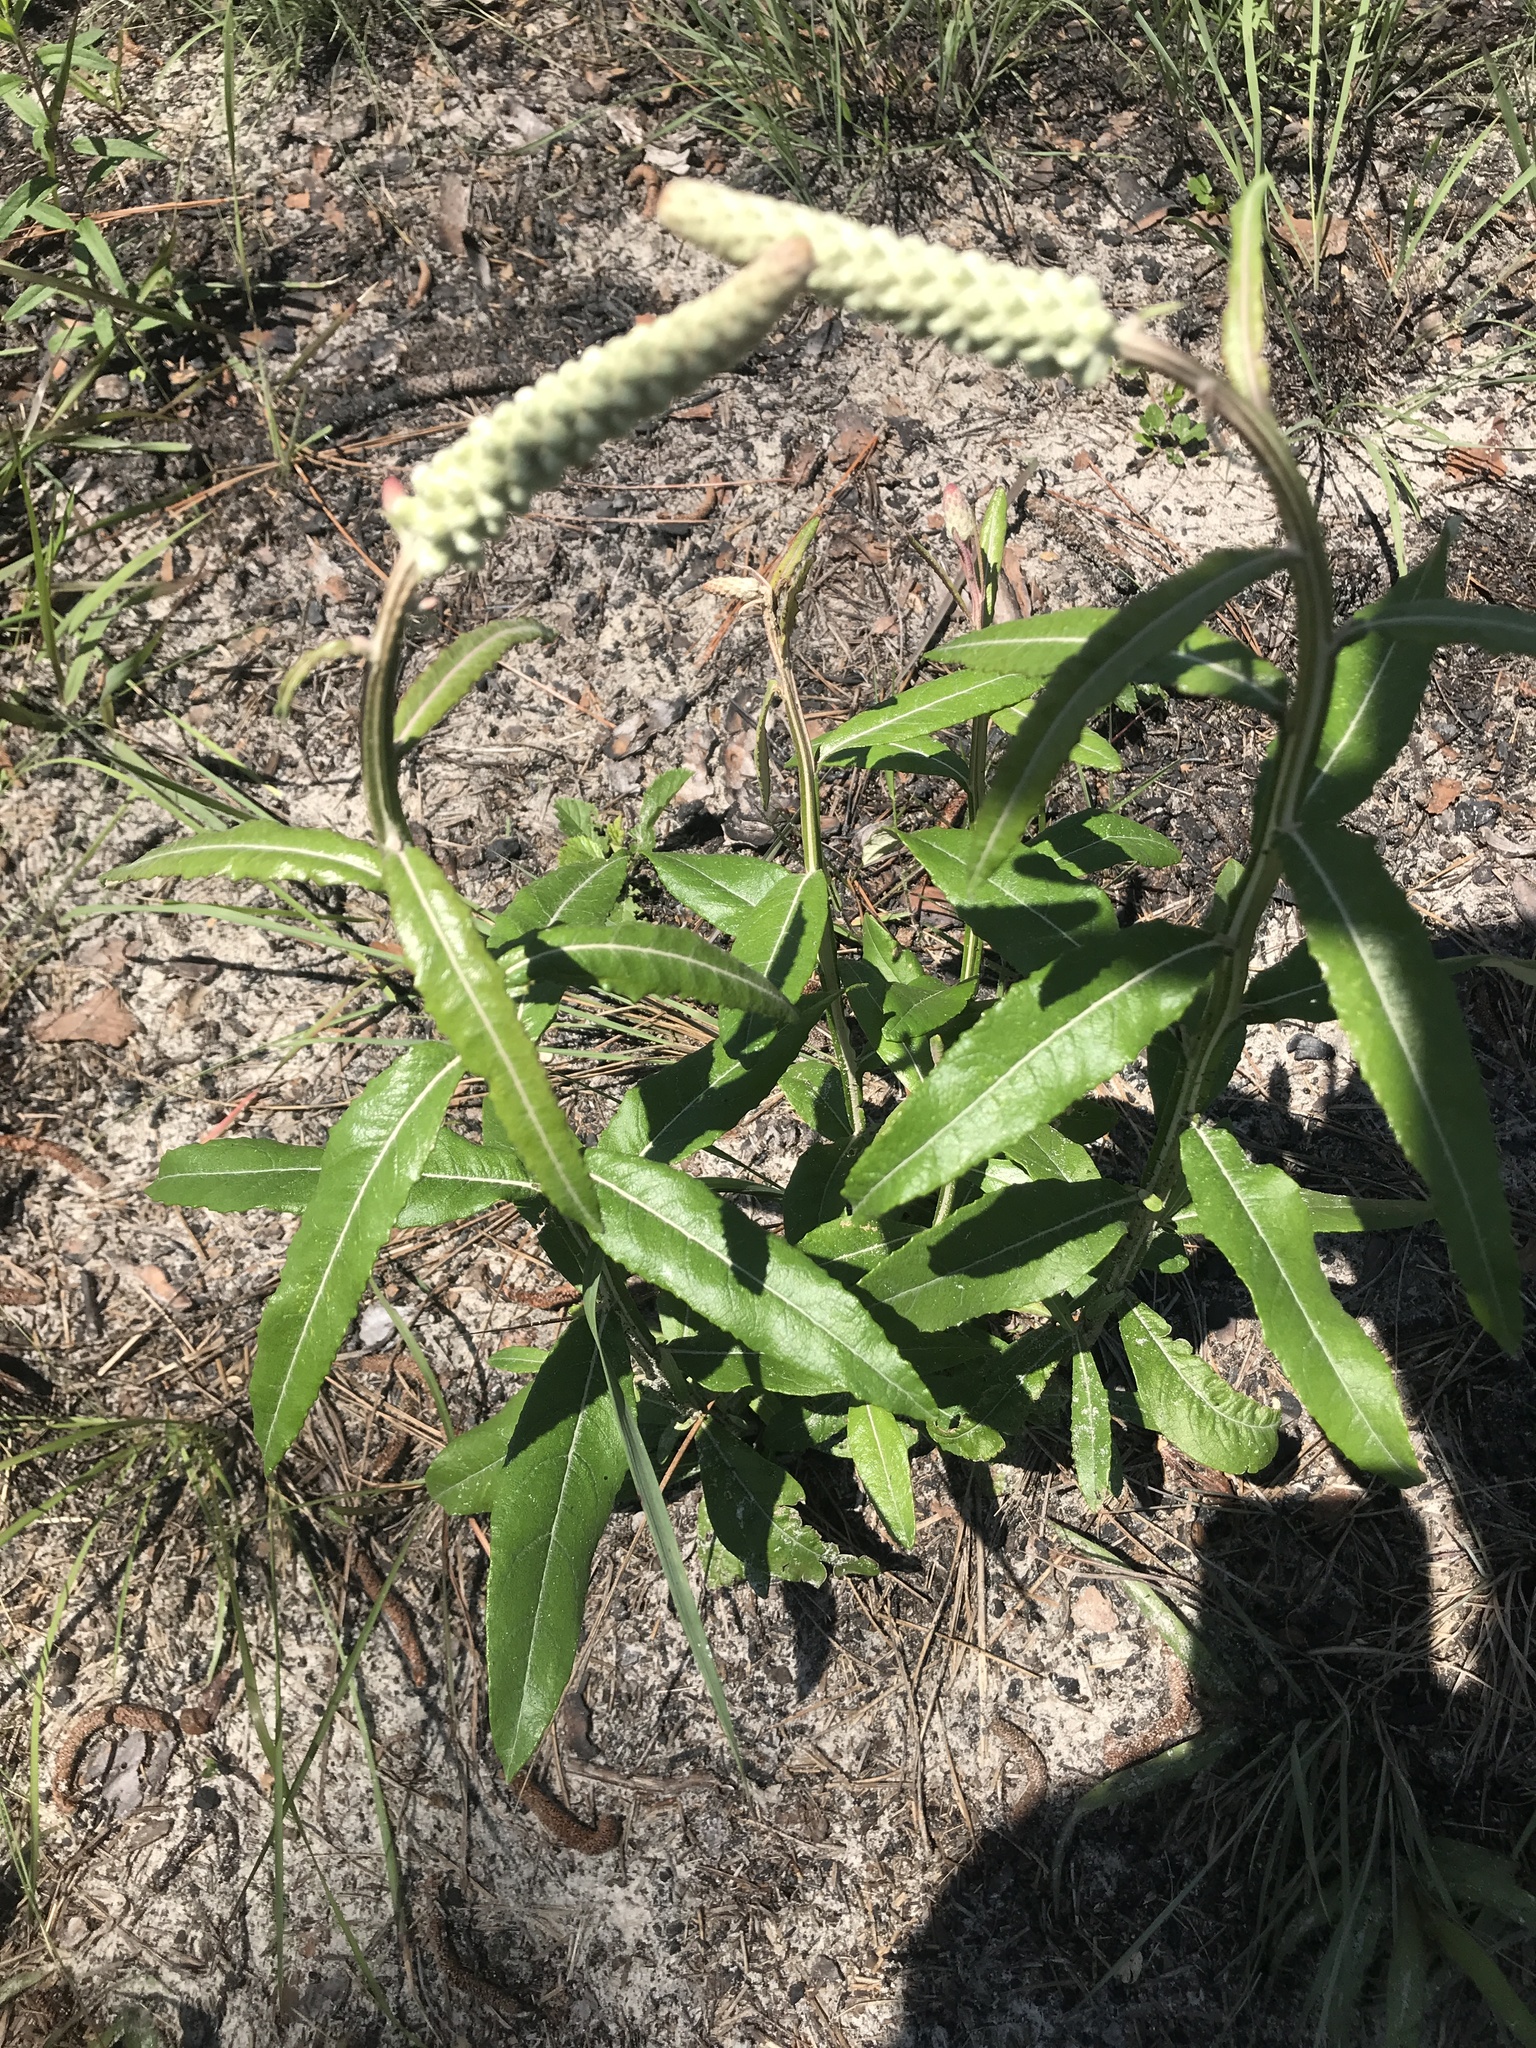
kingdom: Plantae
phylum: Tracheophyta
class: Magnoliopsida
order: Asterales
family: Asteraceae
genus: Pterocaulon
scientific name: Pterocaulon pycnostachyum
